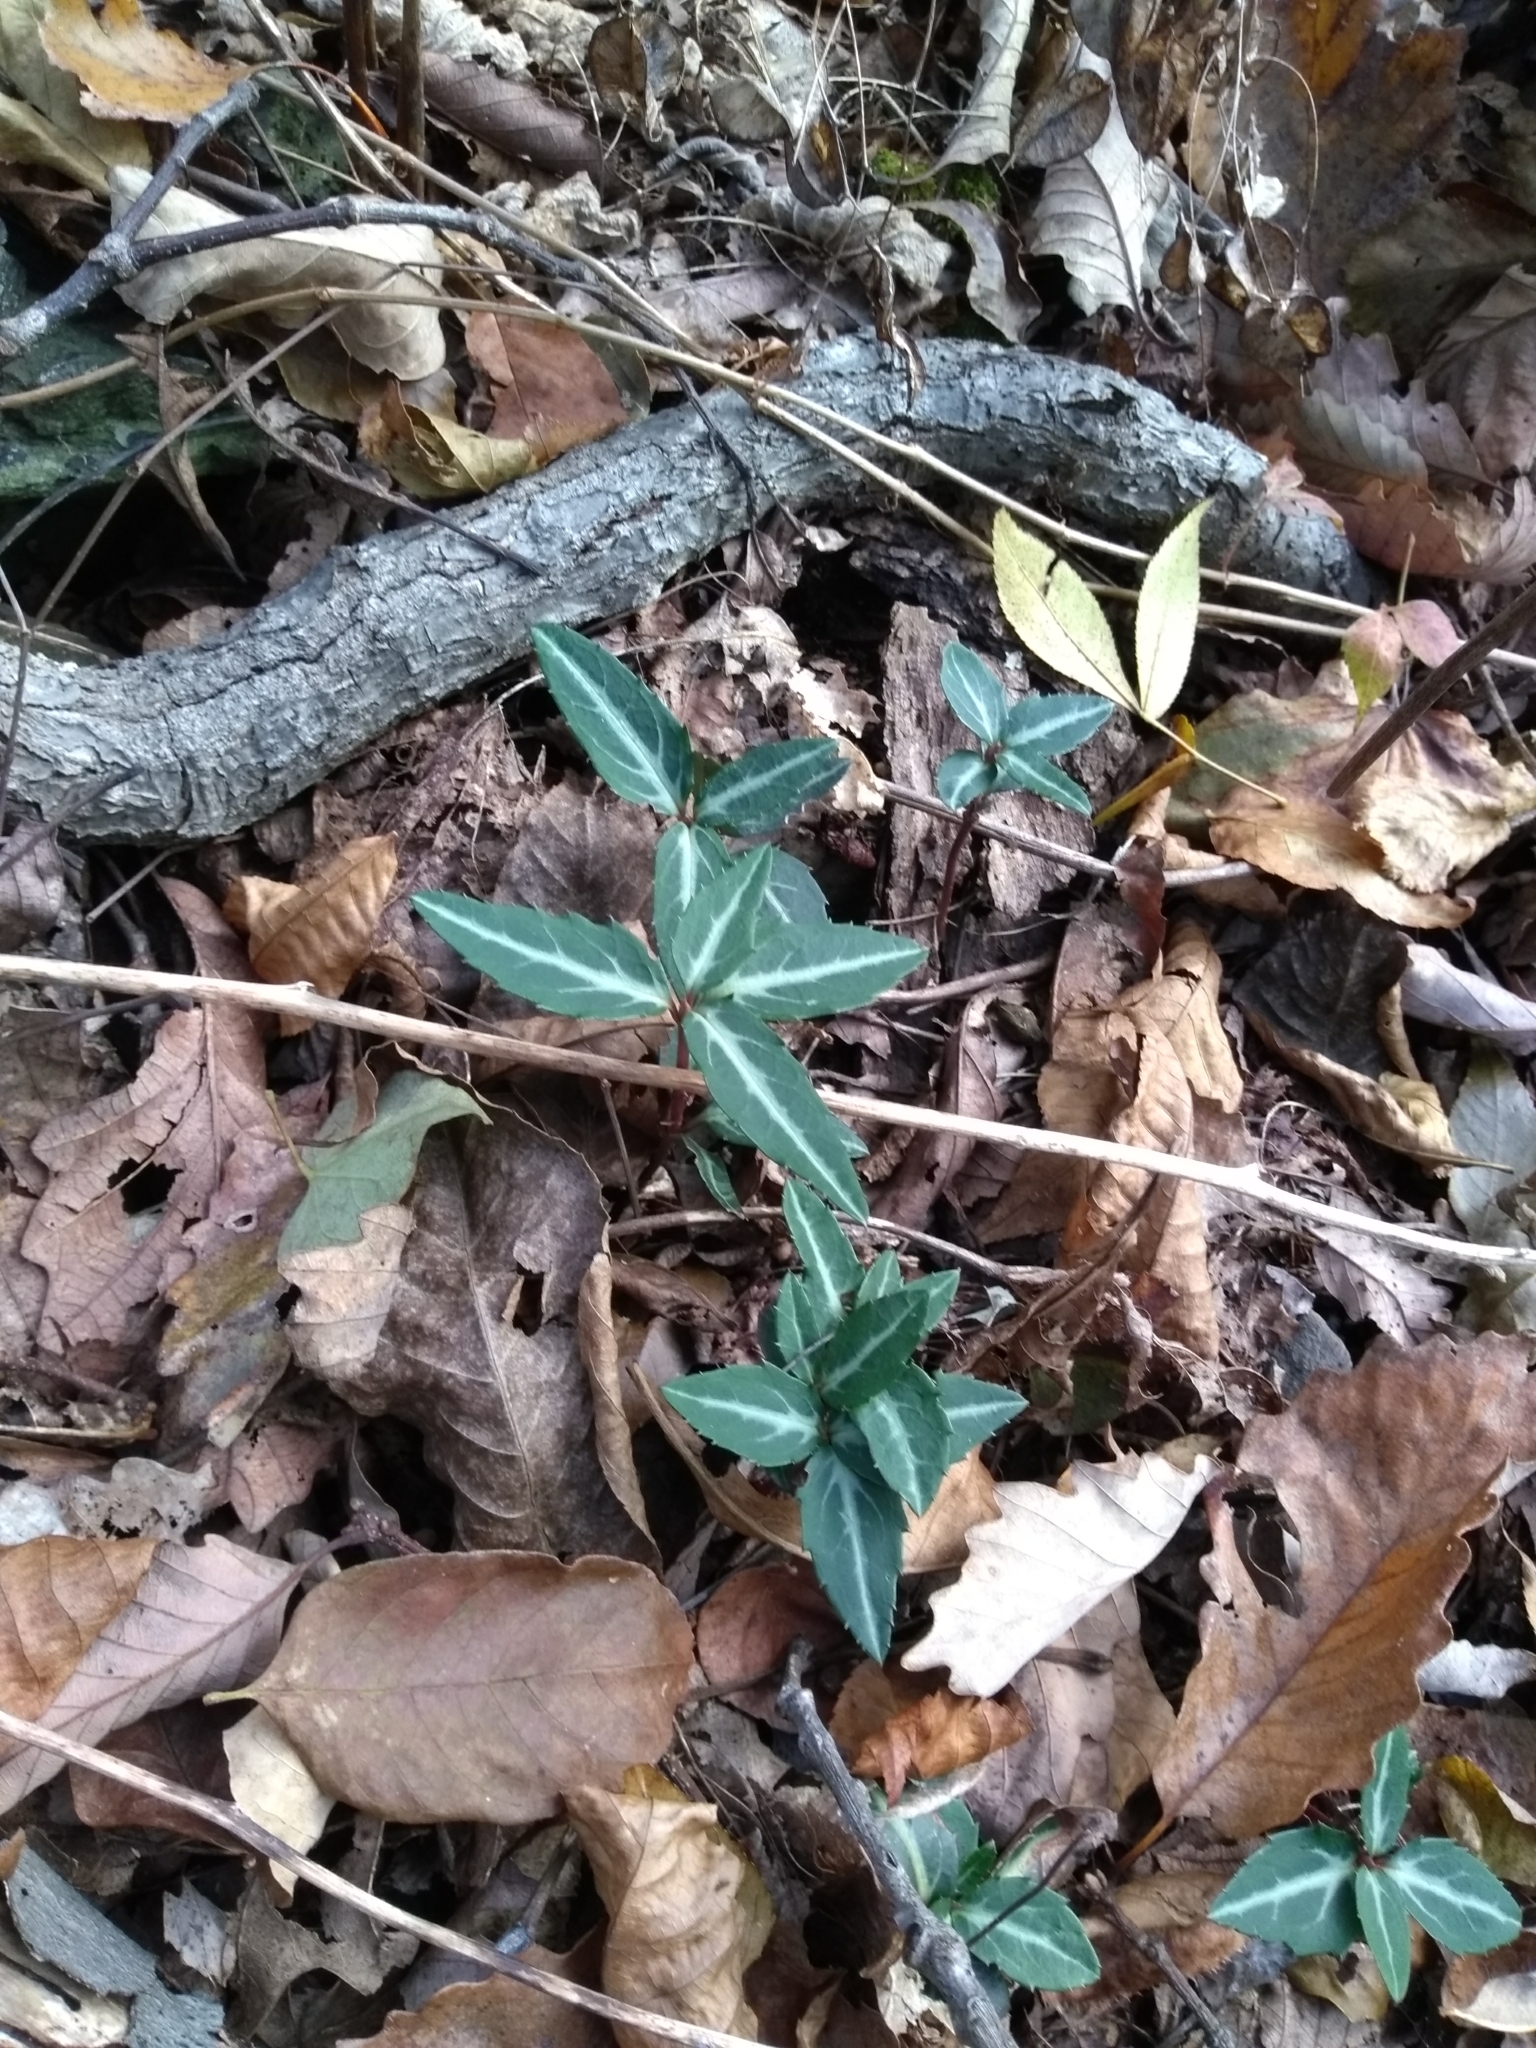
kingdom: Plantae
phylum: Tracheophyta
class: Magnoliopsida
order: Ericales
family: Ericaceae
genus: Chimaphila
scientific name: Chimaphila maculata
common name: Spotted pipsissewa
